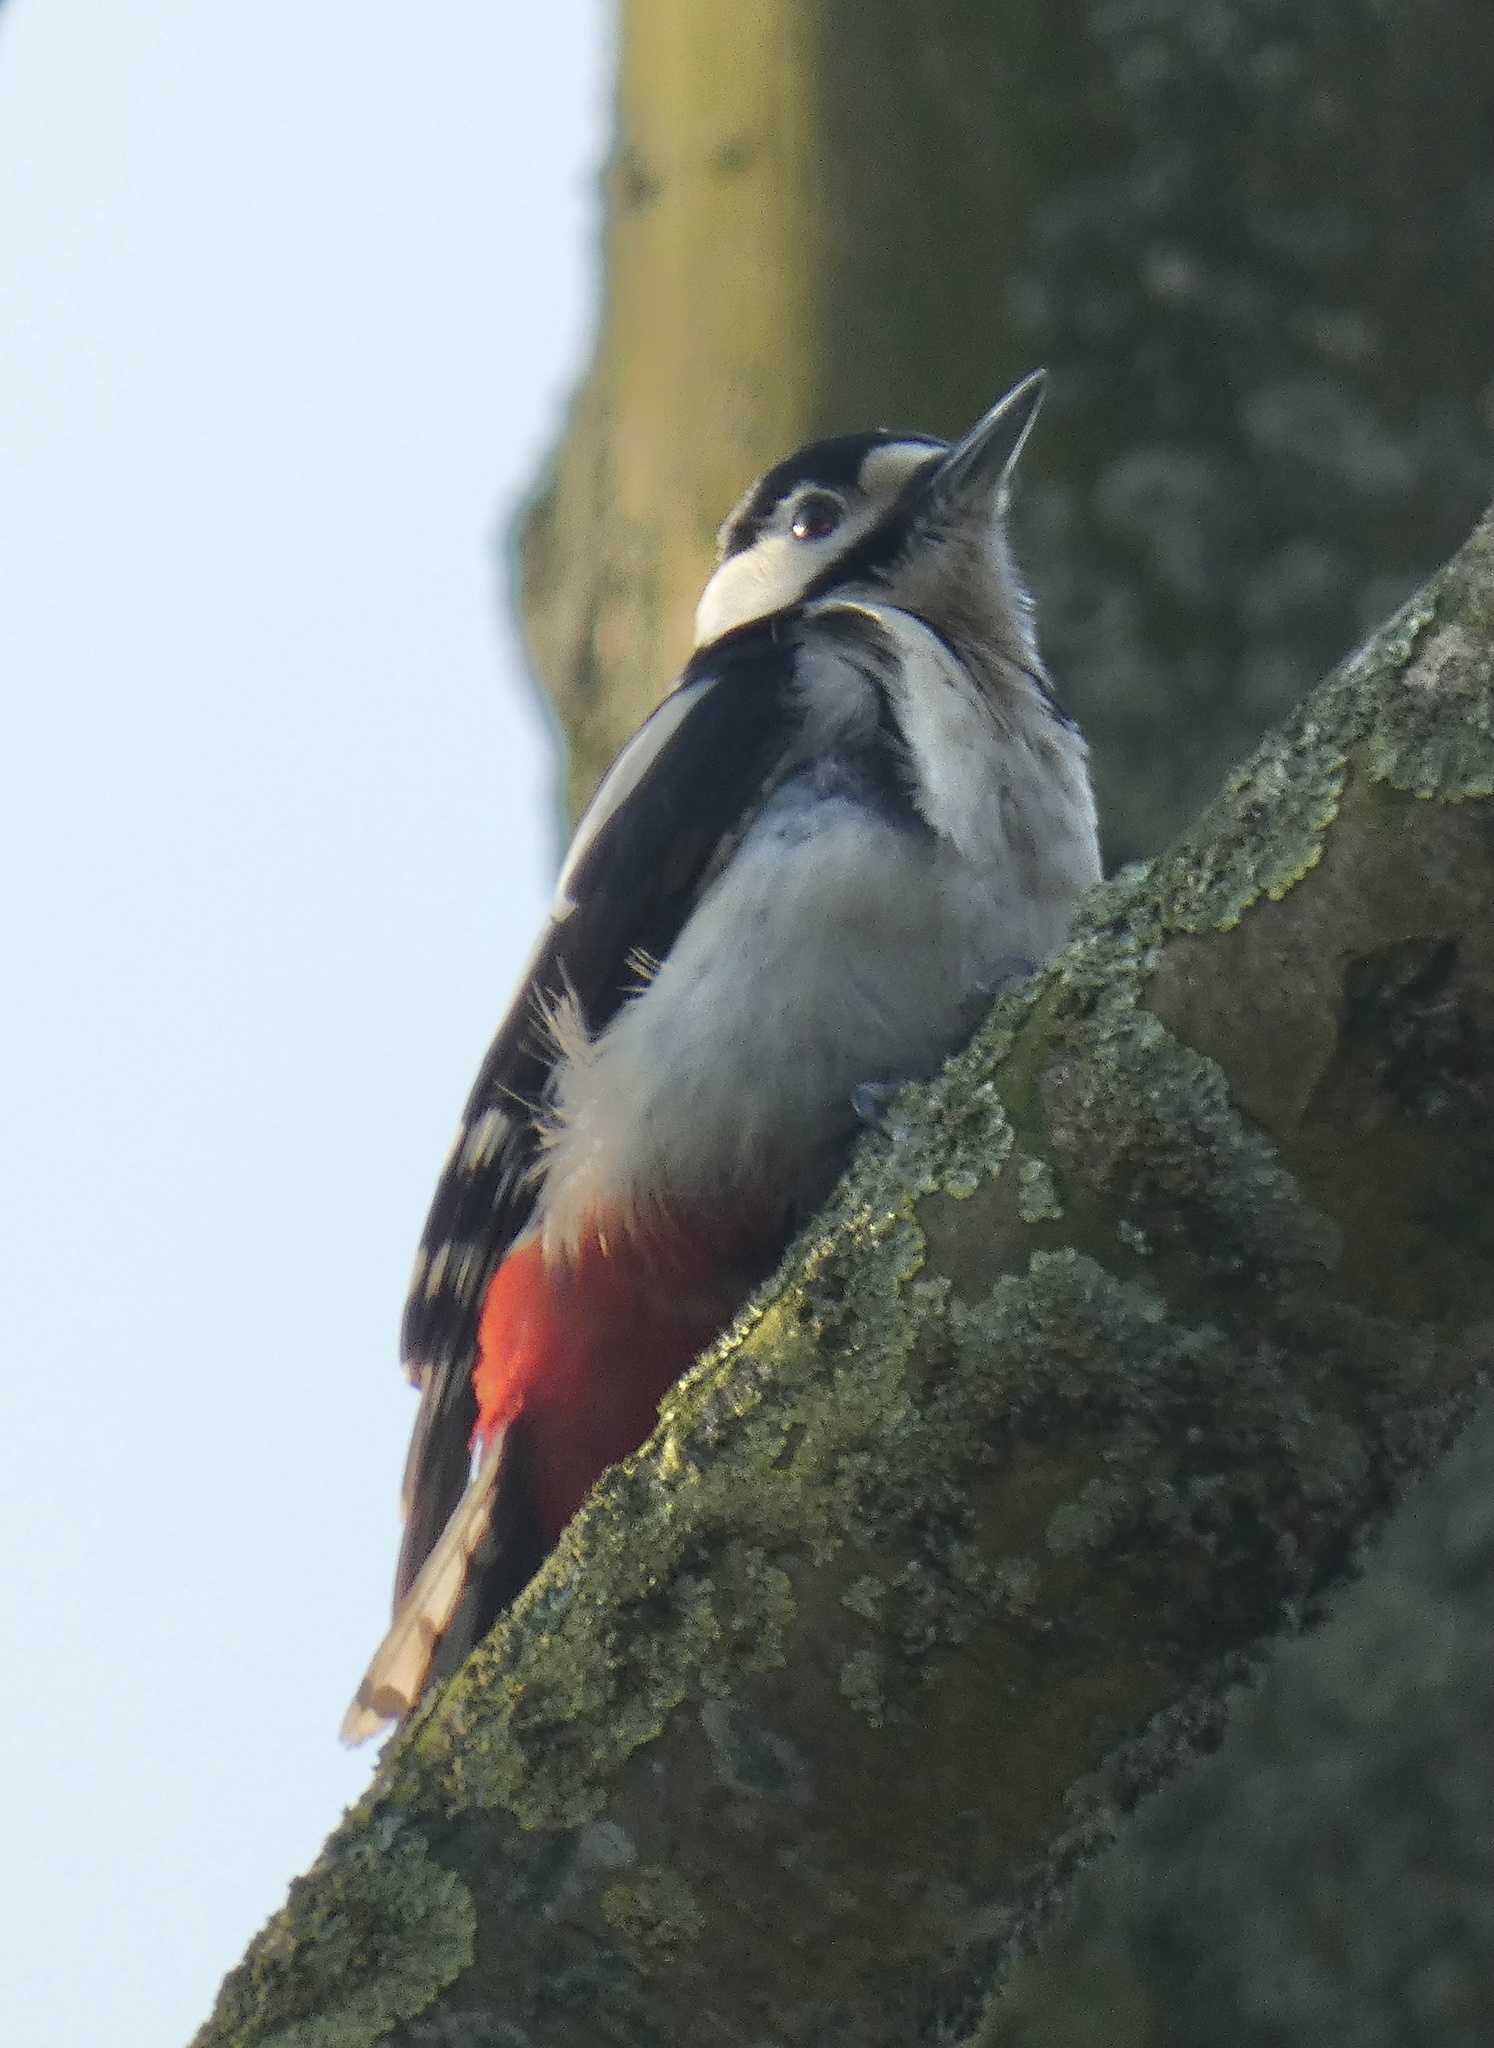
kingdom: Animalia
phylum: Chordata
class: Aves
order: Piciformes
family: Picidae
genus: Dendrocopos
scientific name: Dendrocopos major
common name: Great spotted woodpecker
